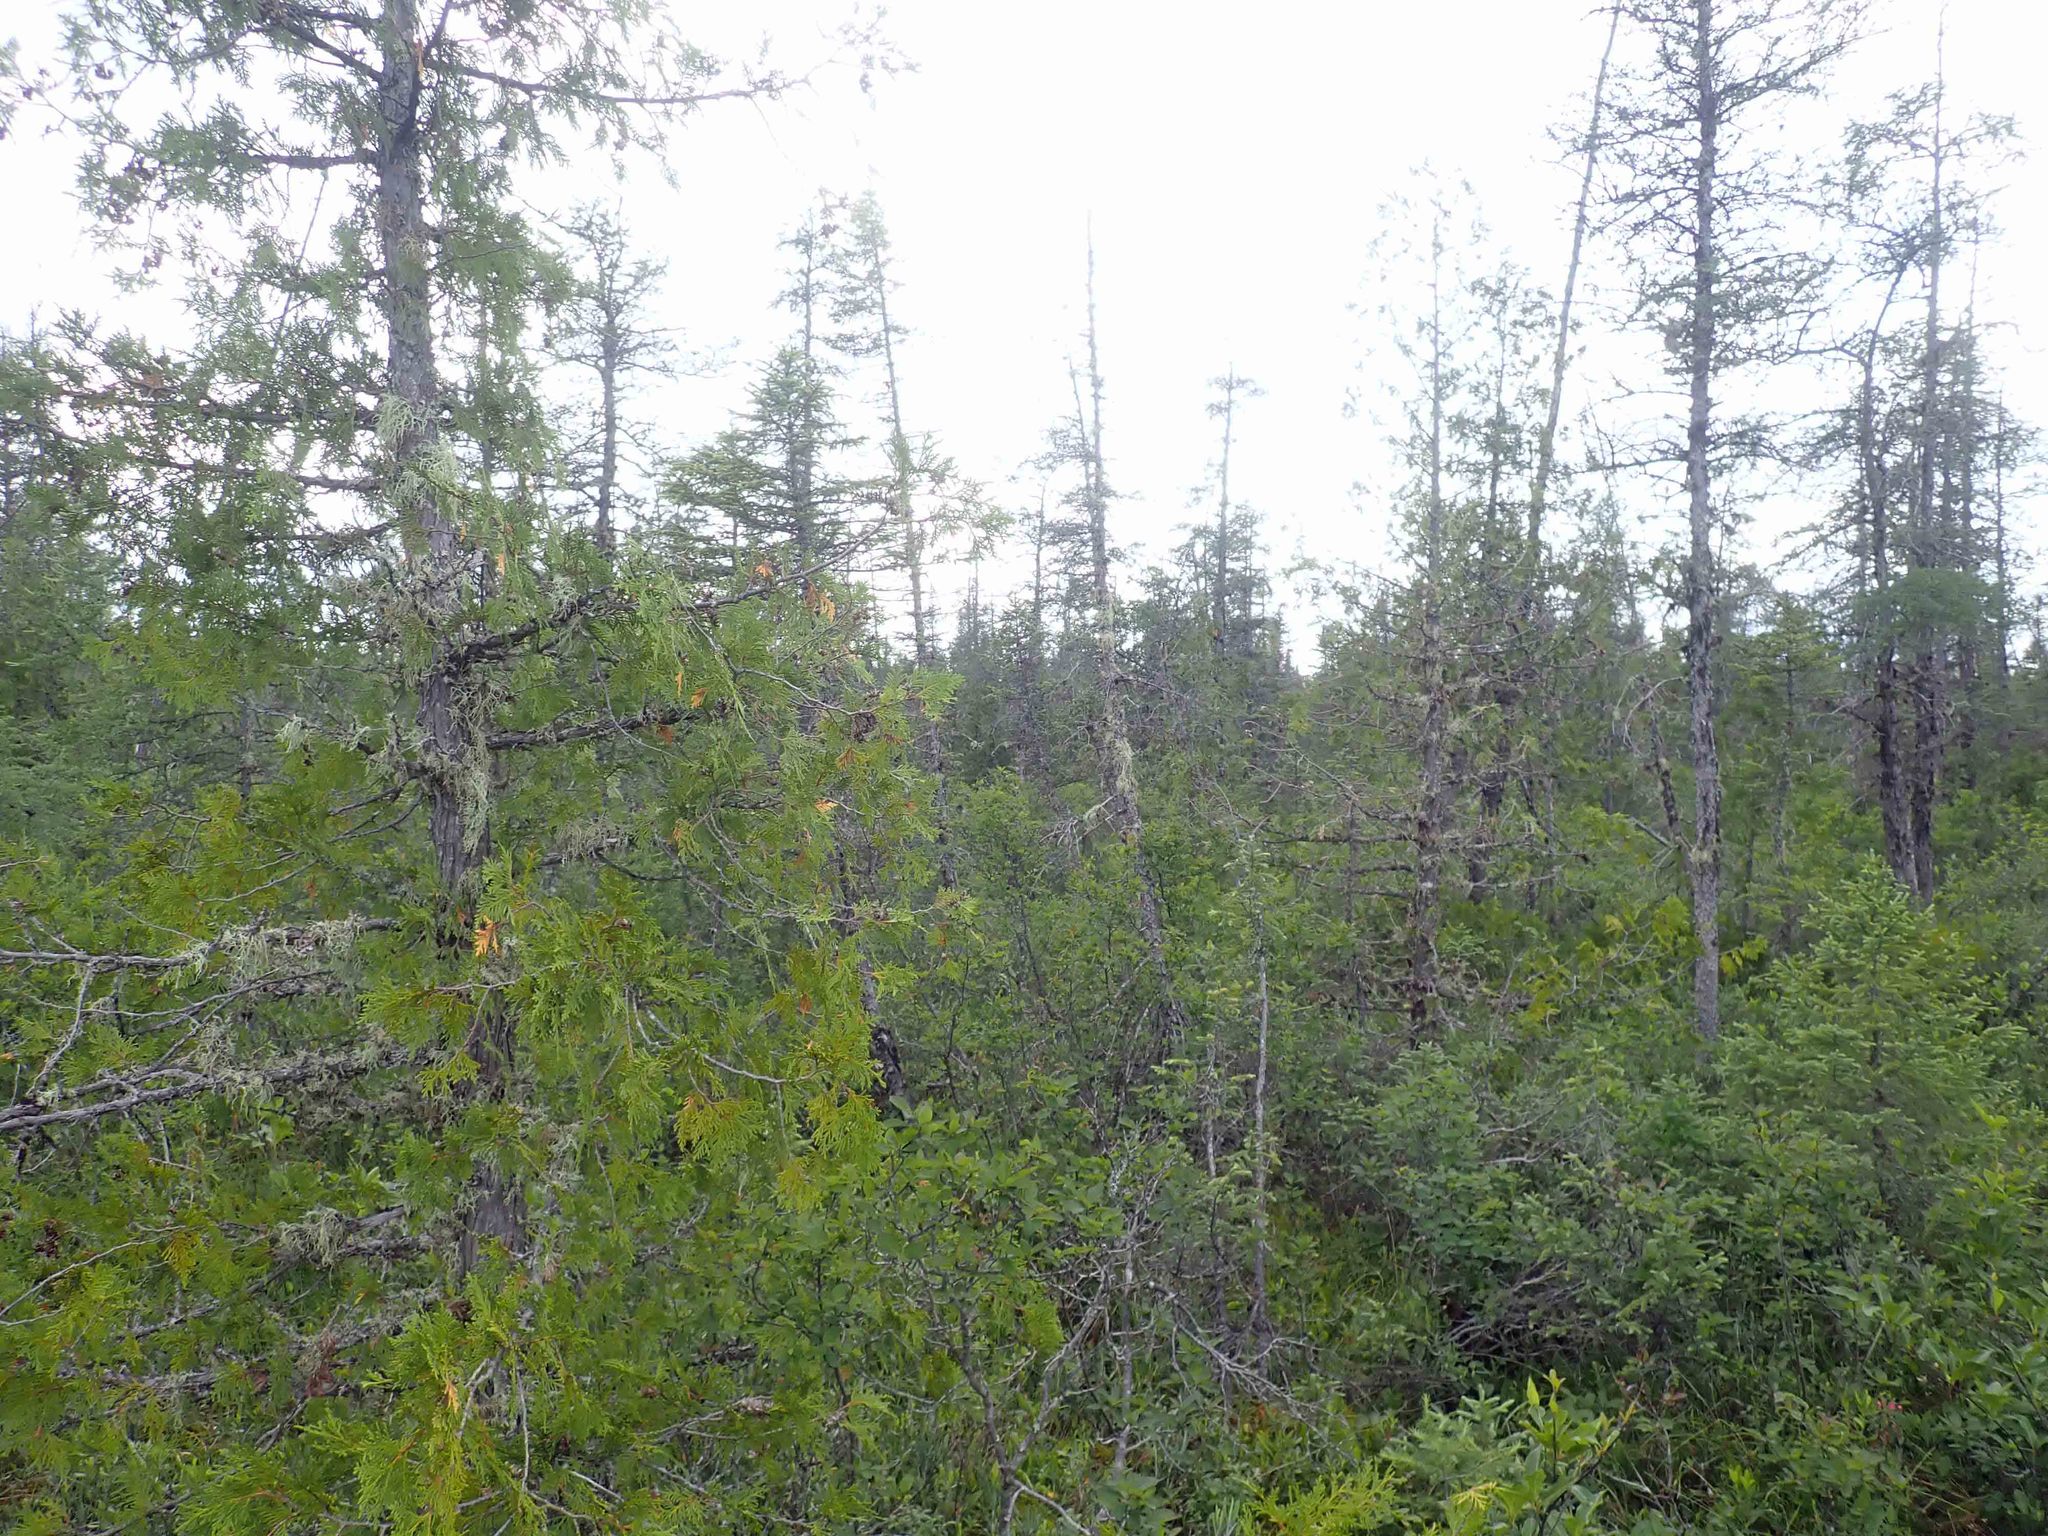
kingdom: Plantae
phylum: Tracheophyta
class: Pinopsida
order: Pinales
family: Cupressaceae
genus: Thuja
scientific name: Thuja occidentalis
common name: Northern white-cedar
